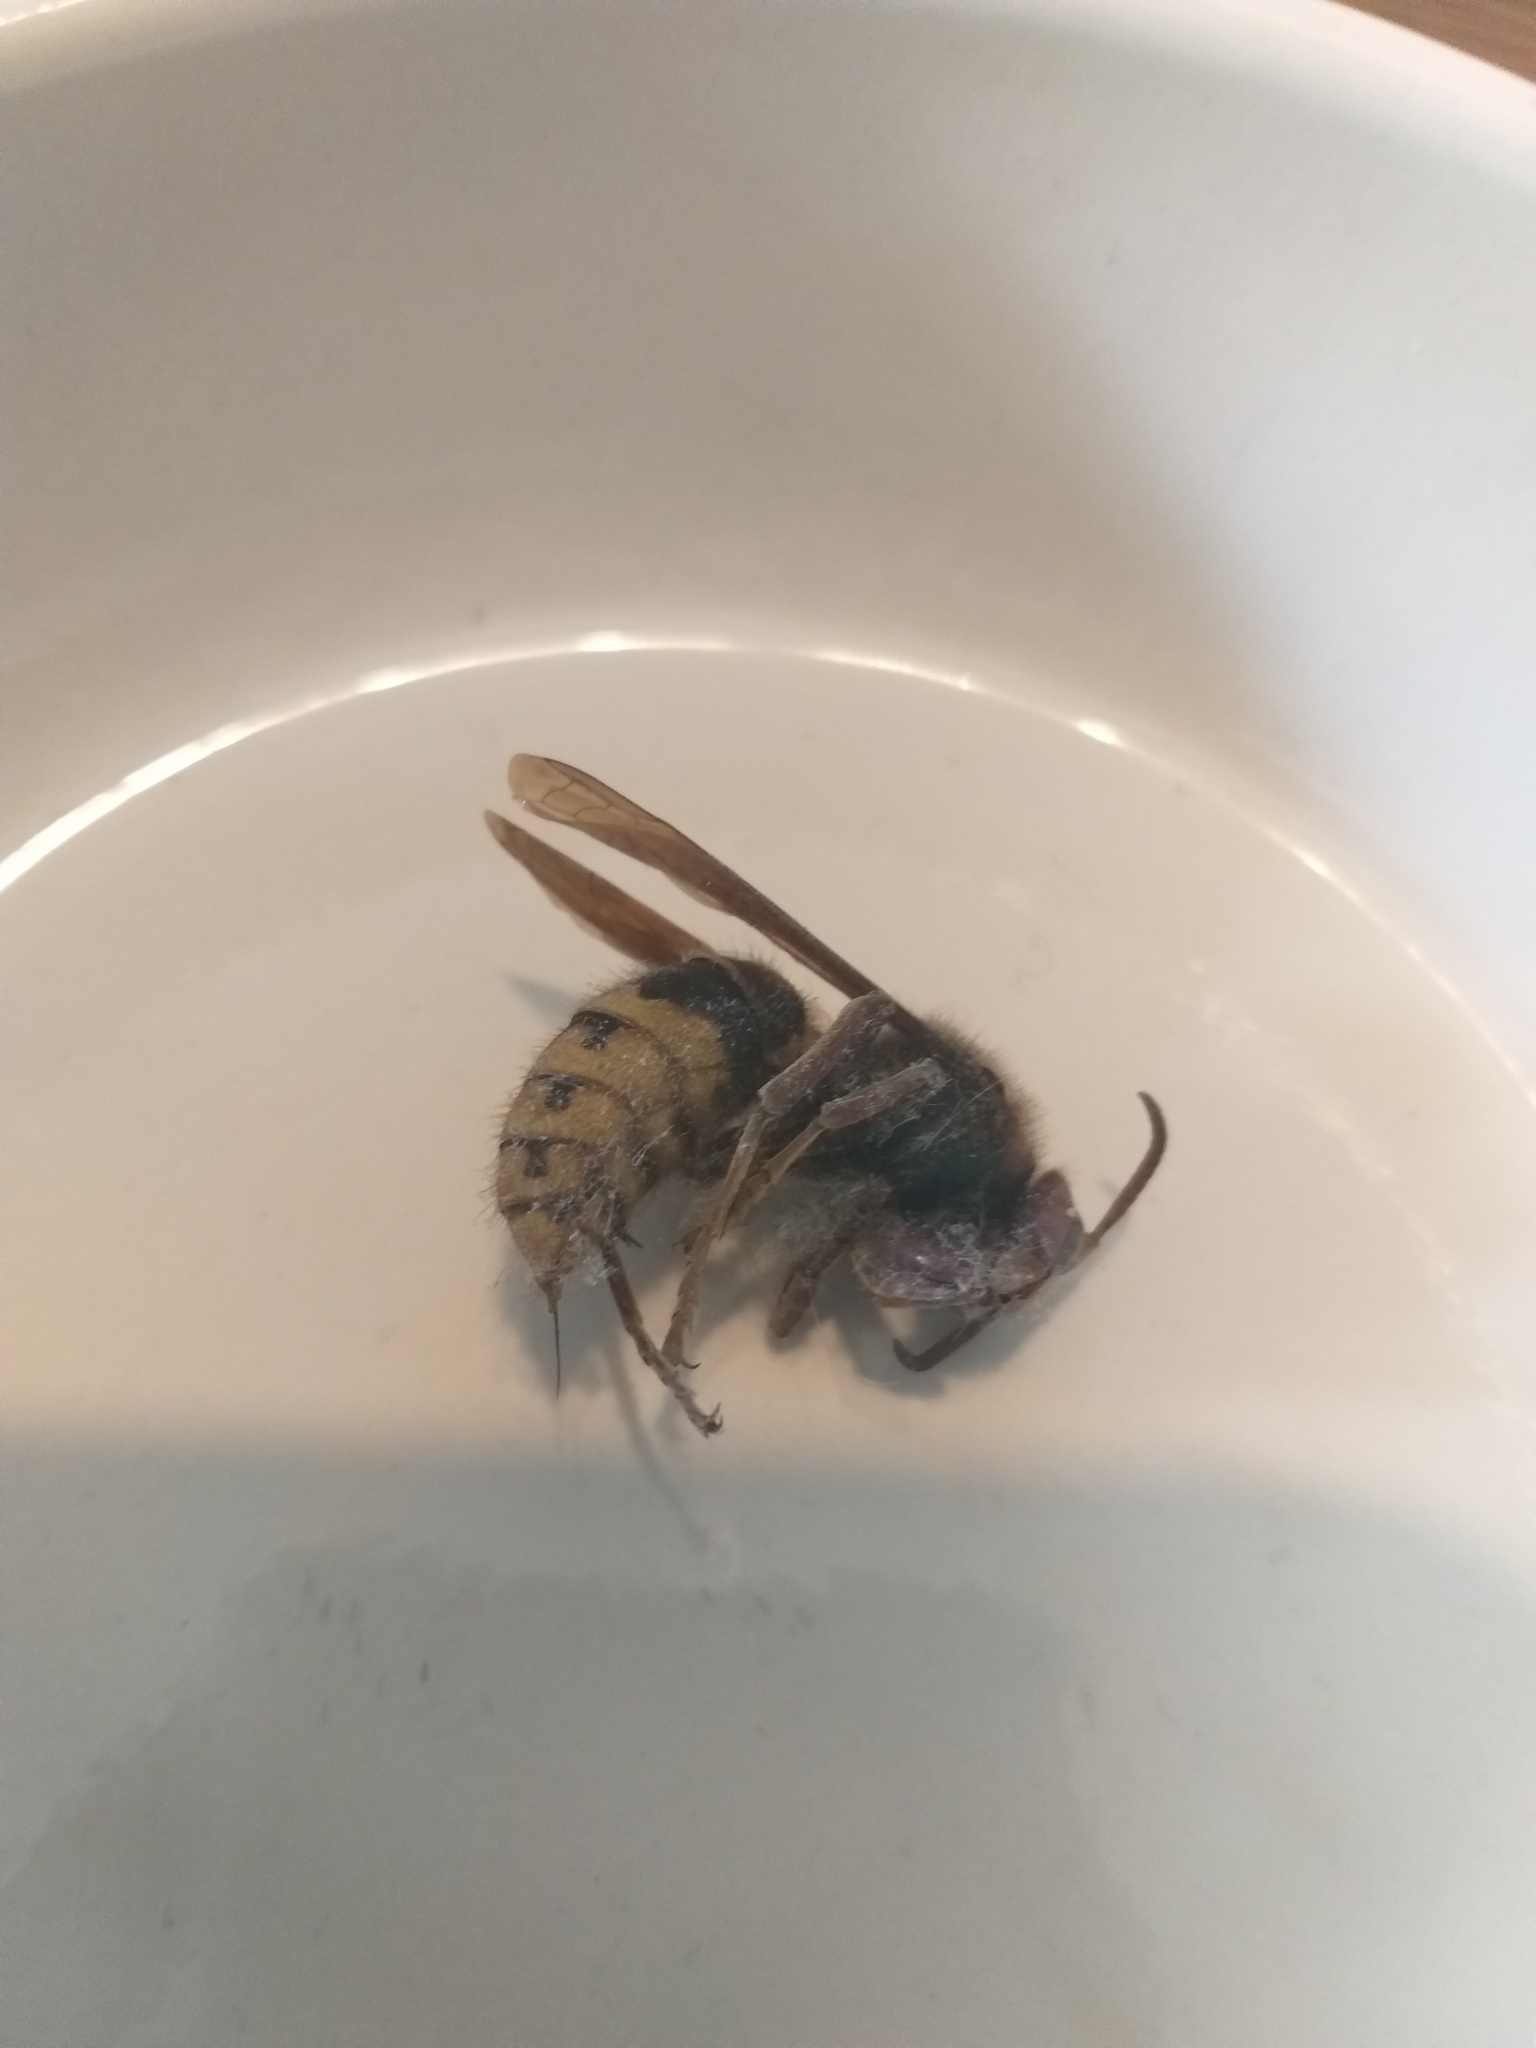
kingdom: Animalia
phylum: Arthropoda
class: Insecta
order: Hymenoptera
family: Vespidae
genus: Vespa
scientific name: Vespa crabro
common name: Hornet
